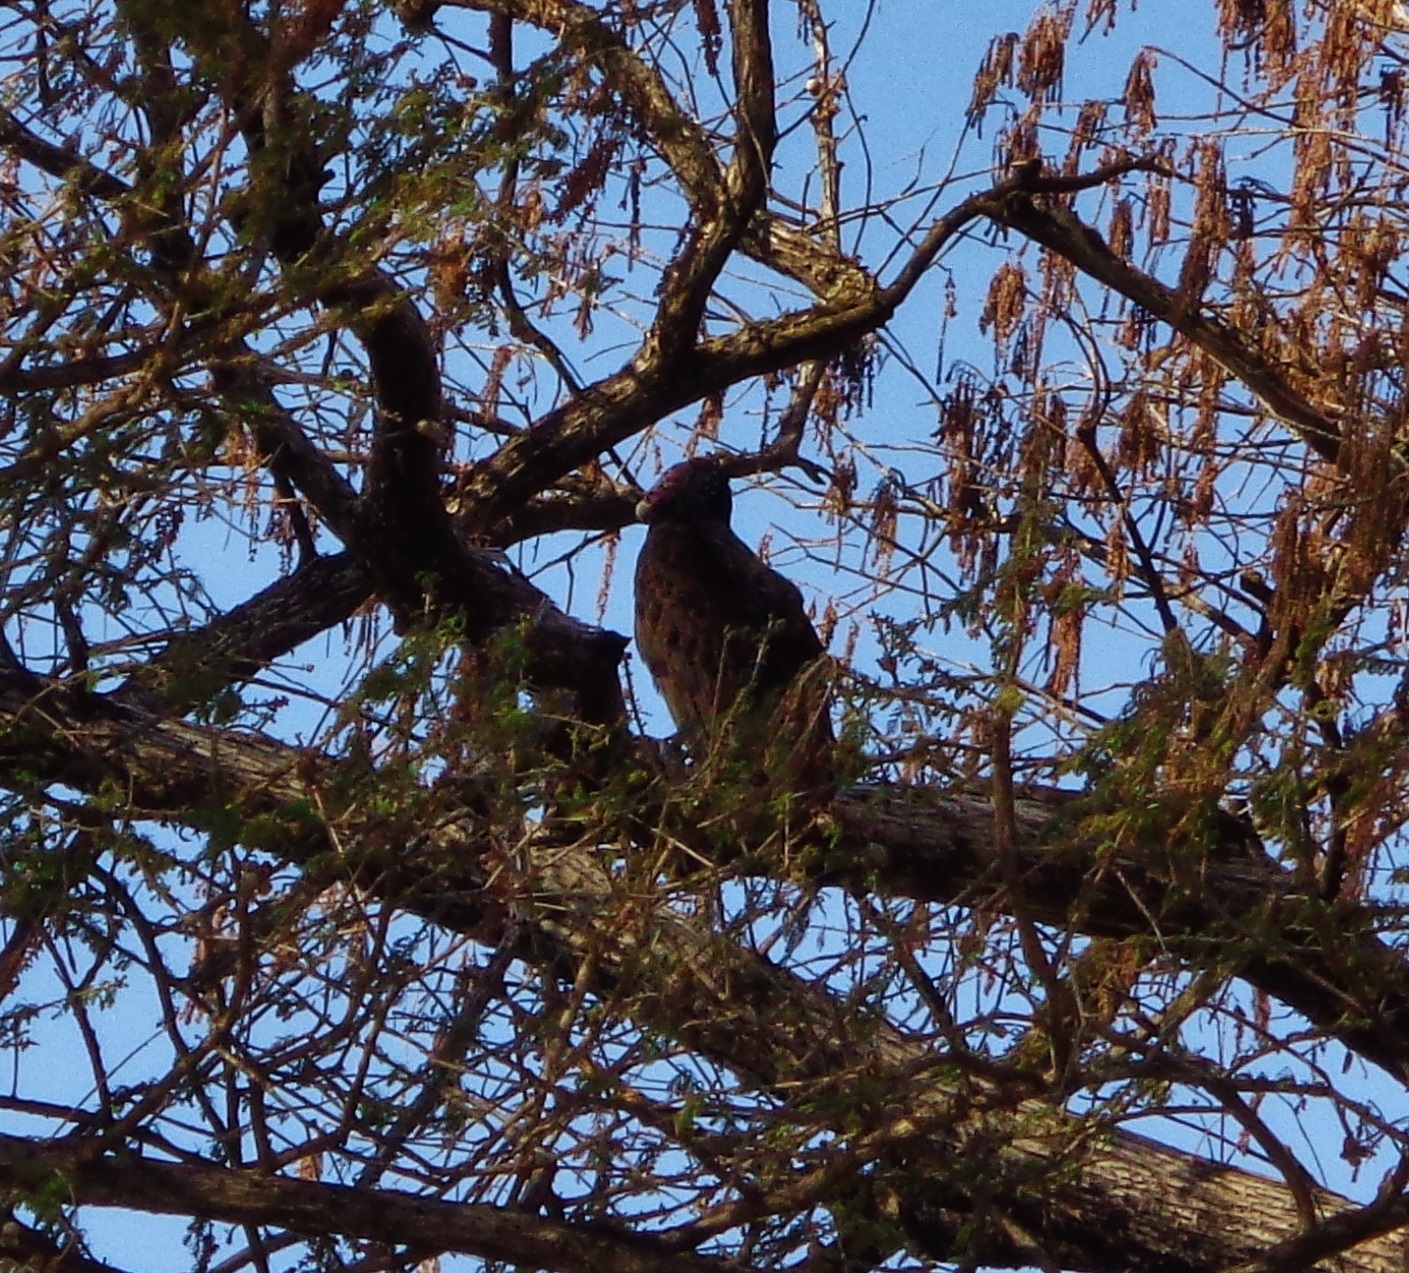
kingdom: Animalia
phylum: Chordata
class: Aves
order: Accipitriformes
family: Cathartidae
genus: Cathartes
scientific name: Cathartes aura
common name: Turkey vulture
